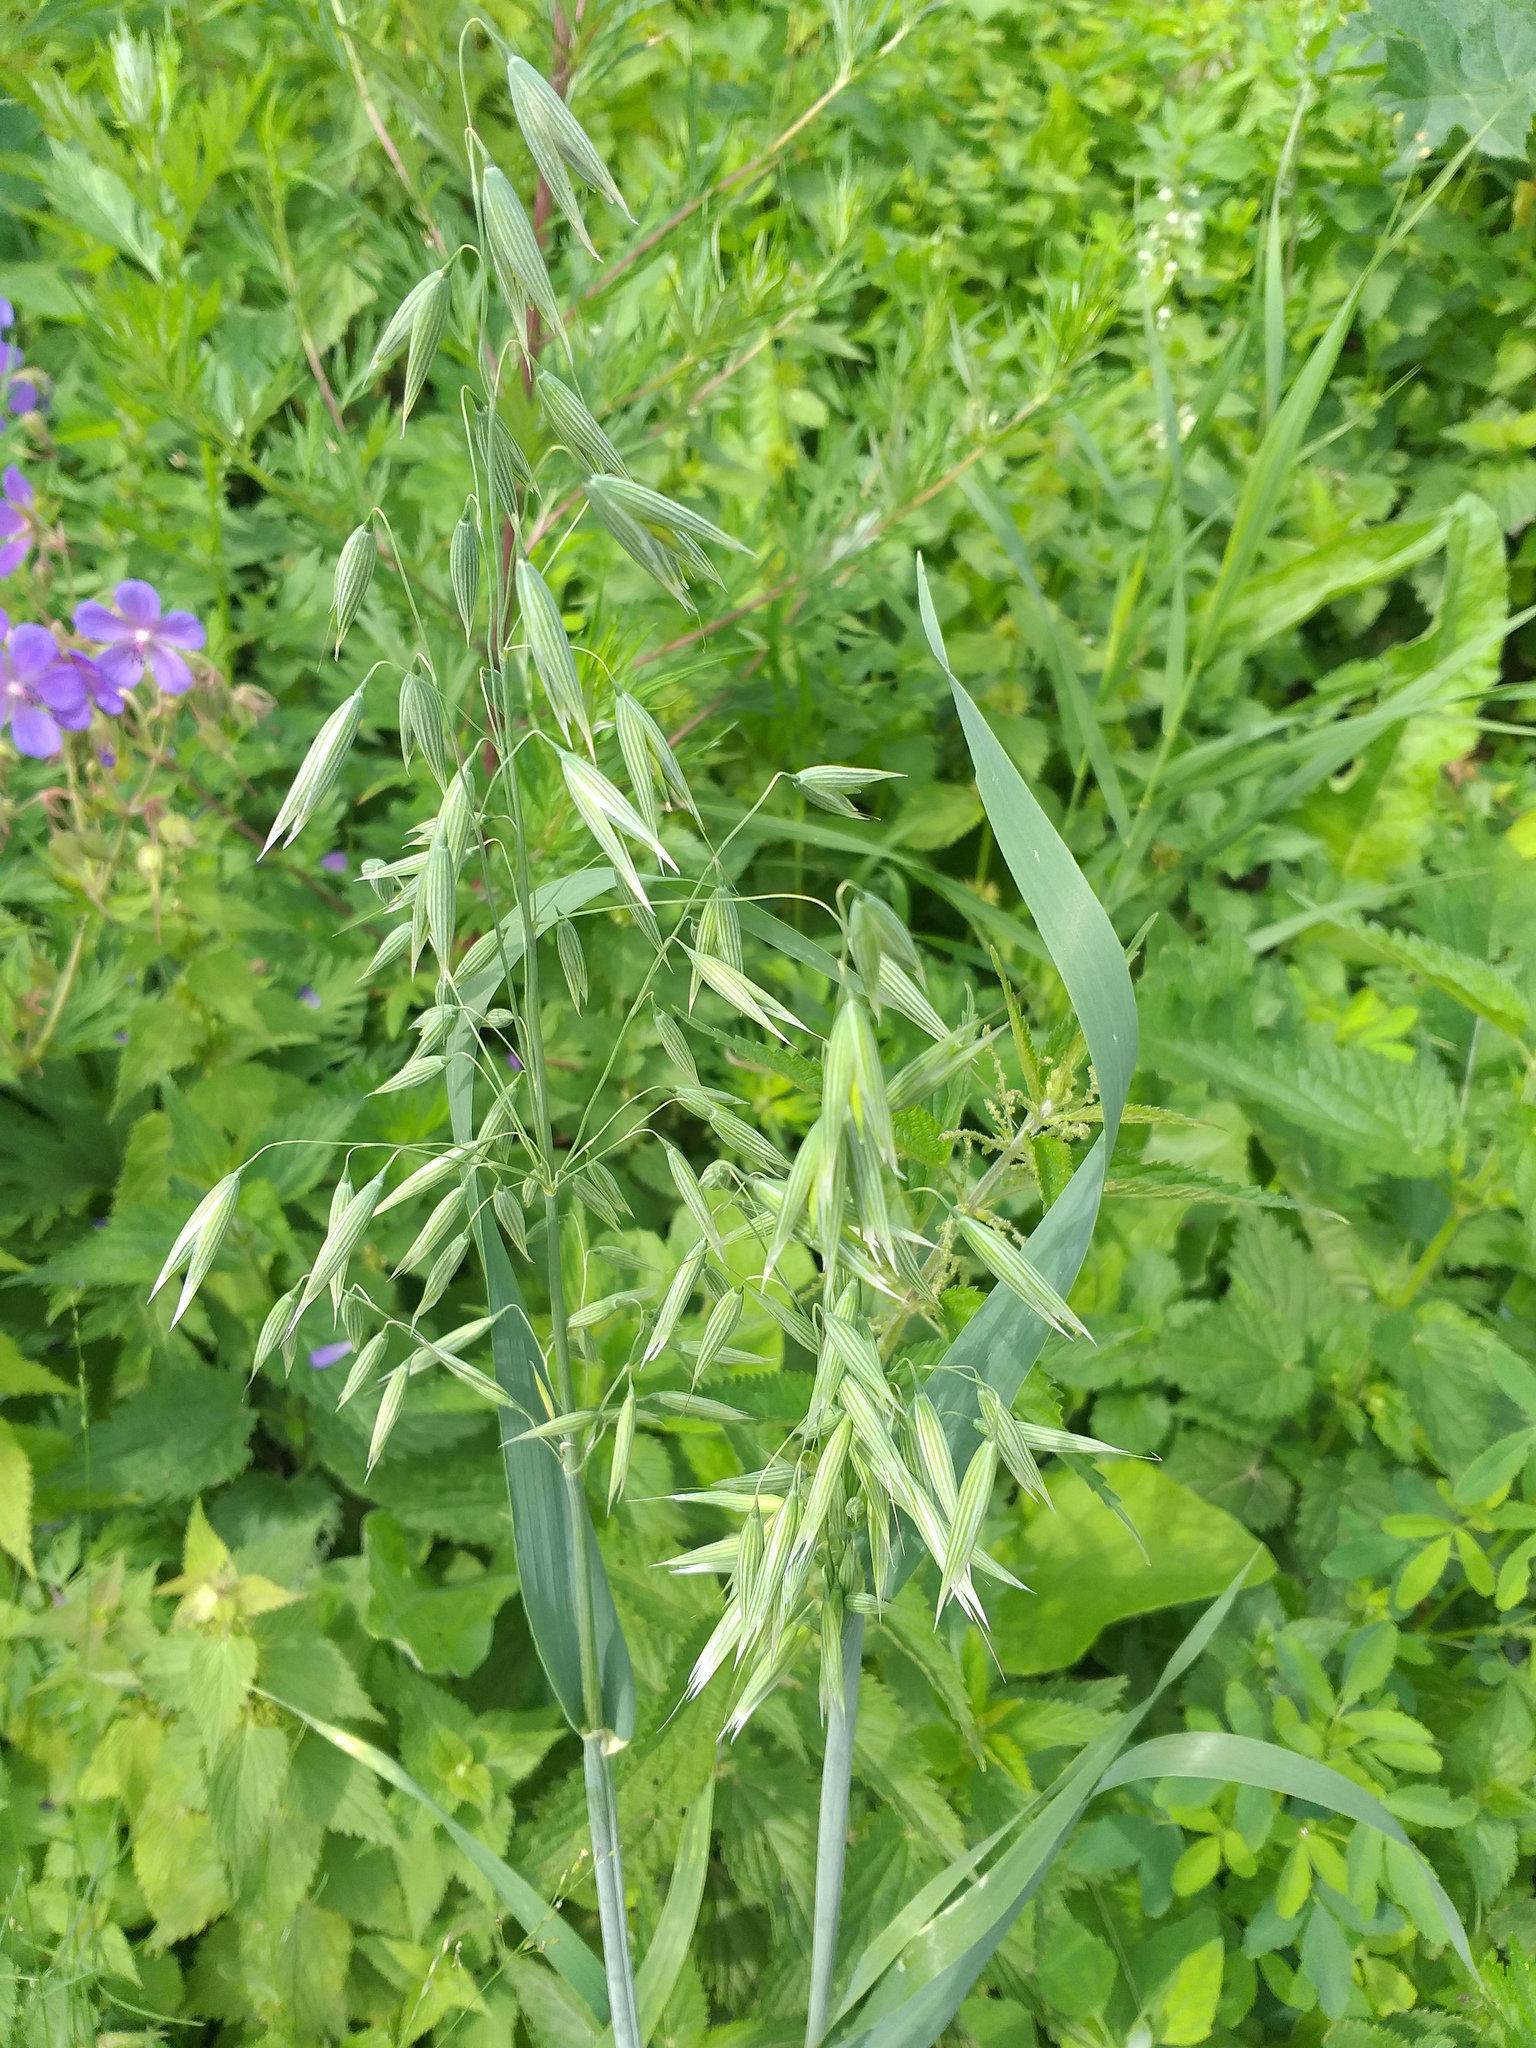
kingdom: Plantae
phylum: Tracheophyta
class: Liliopsida
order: Poales
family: Poaceae
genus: Avena
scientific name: Avena sativa
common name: Oat
